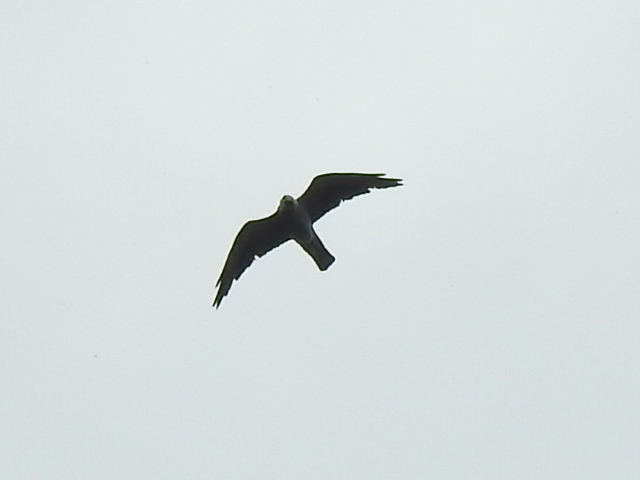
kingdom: Animalia
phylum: Chordata
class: Aves
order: Accipitriformes
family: Accipitridae
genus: Ictinia
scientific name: Ictinia mississippiensis
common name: Mississippi kite
